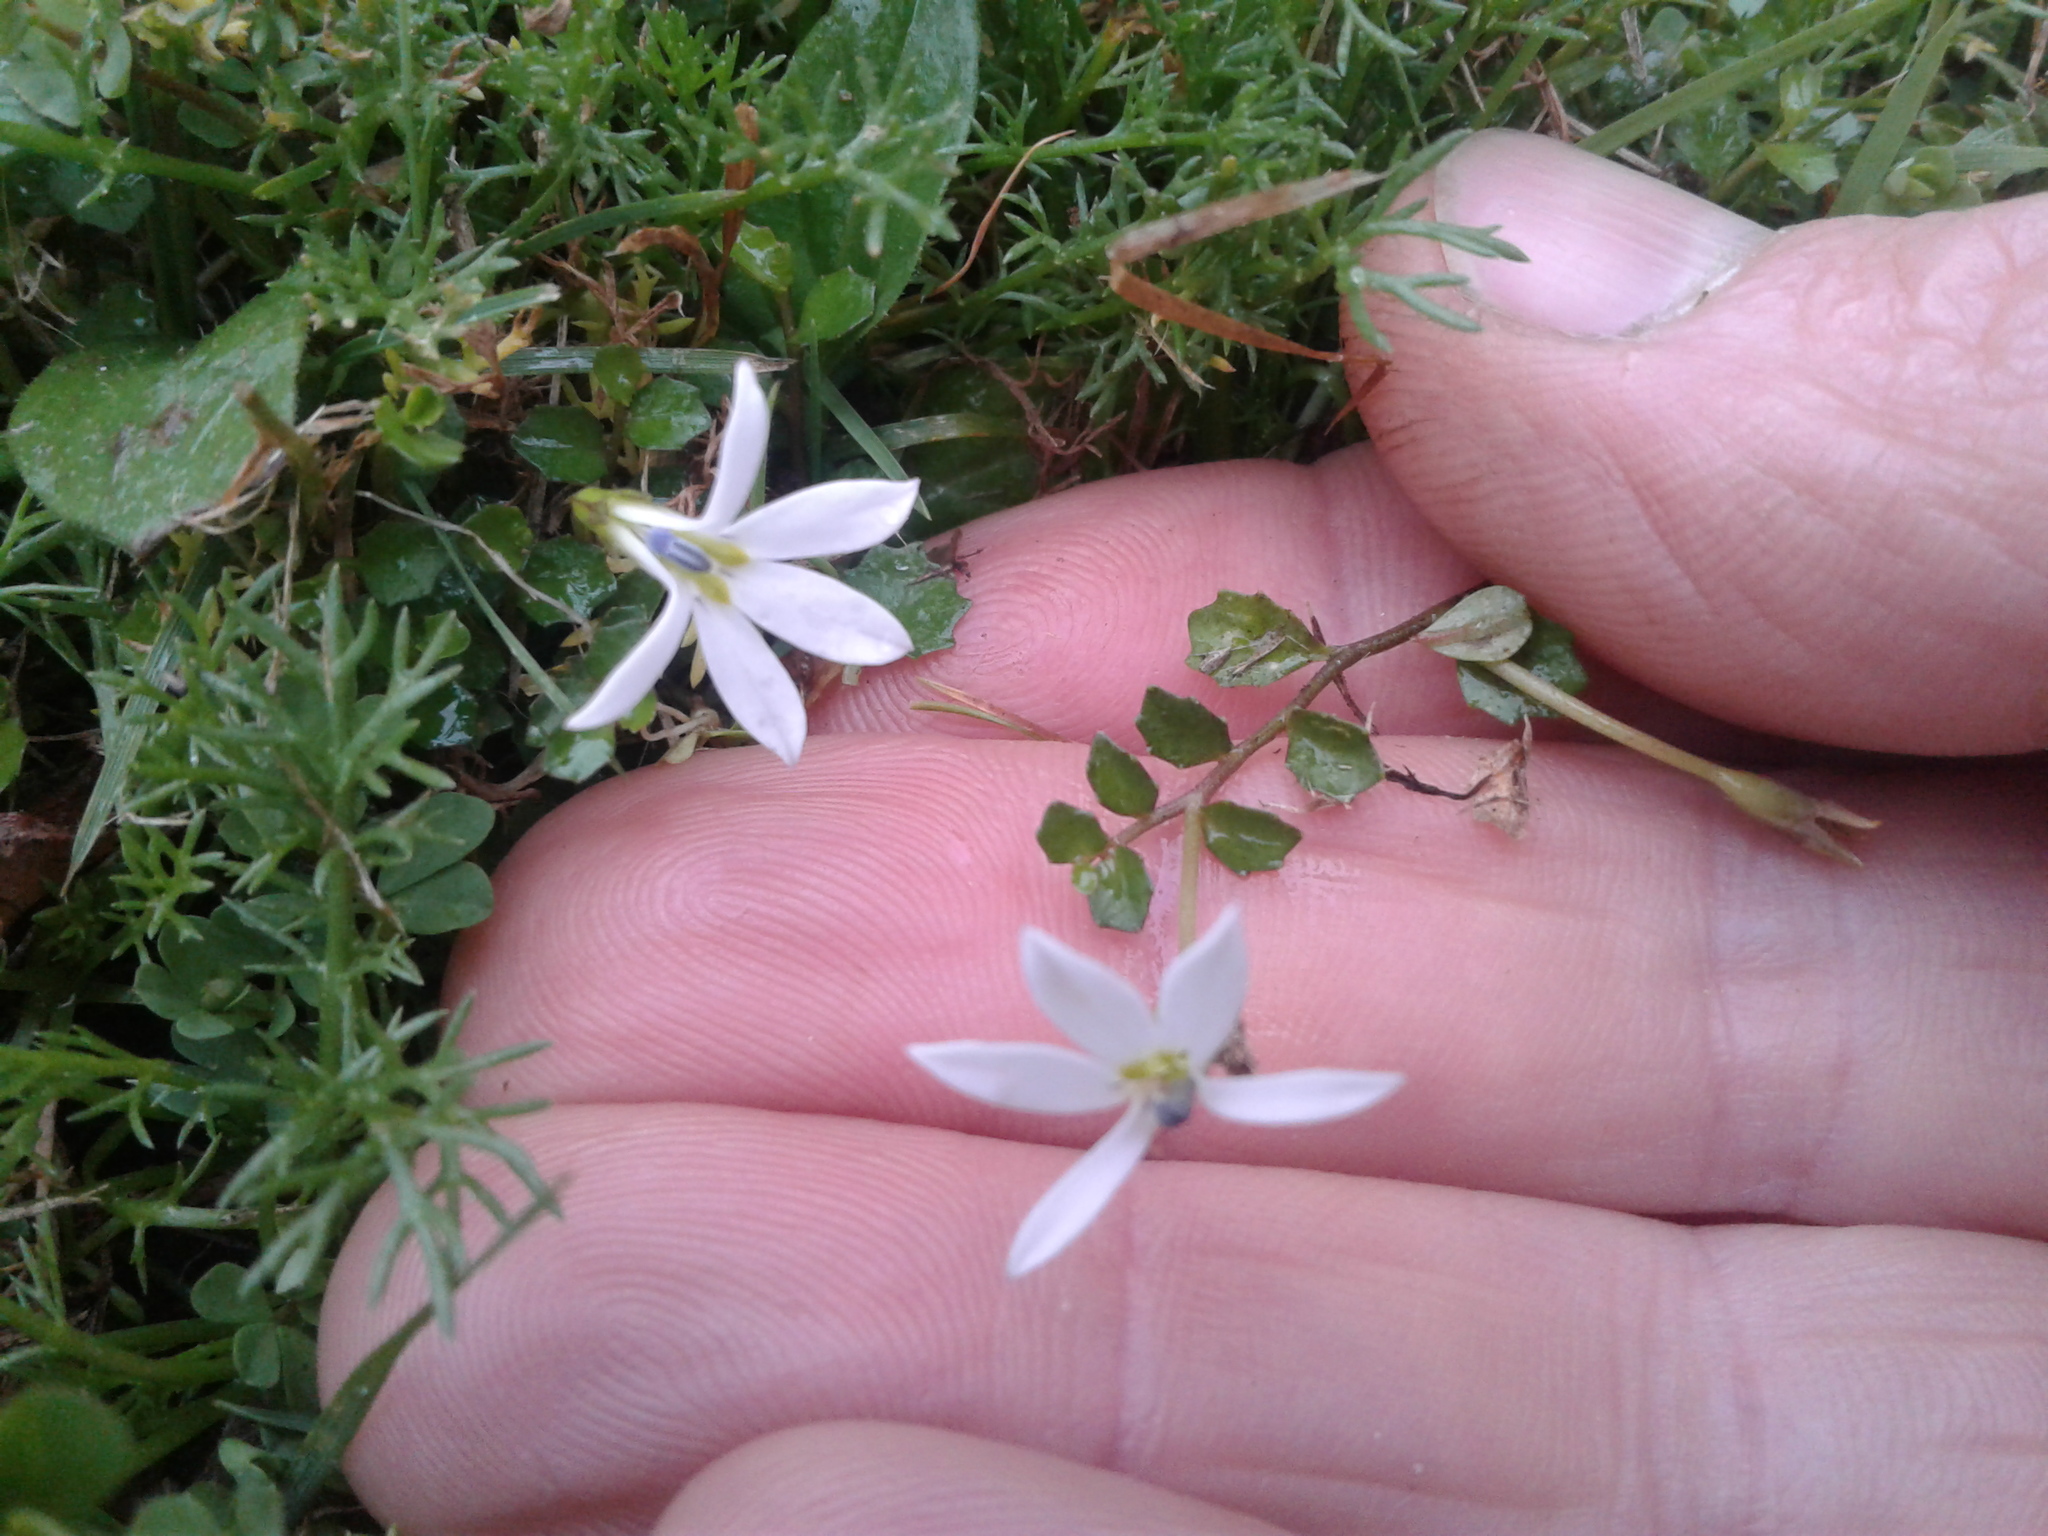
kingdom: Plantae
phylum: Tracheophyta
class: Magnoliopsida
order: Asterales
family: Campanulaceae
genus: Lobelia
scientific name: Lobelia angulata
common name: Lawn lobelia
